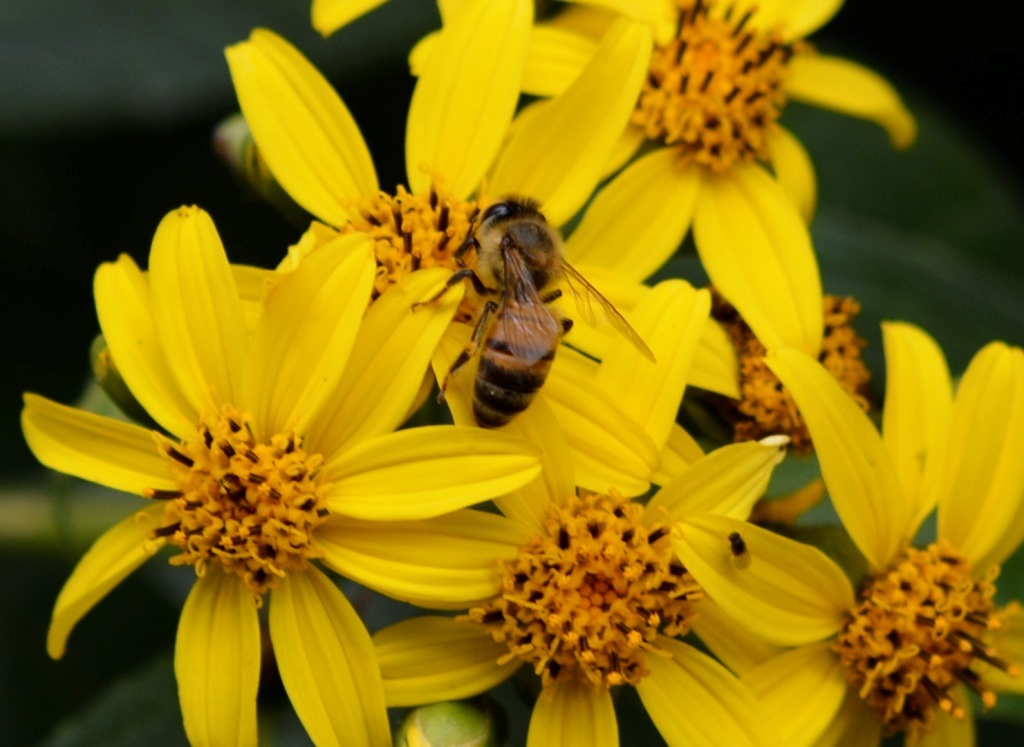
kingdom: Animalia
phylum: Arthropoda
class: Insecta
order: Hymenoptera
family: Apidae
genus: Apis
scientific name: Apis mellifera
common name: Honey bee
